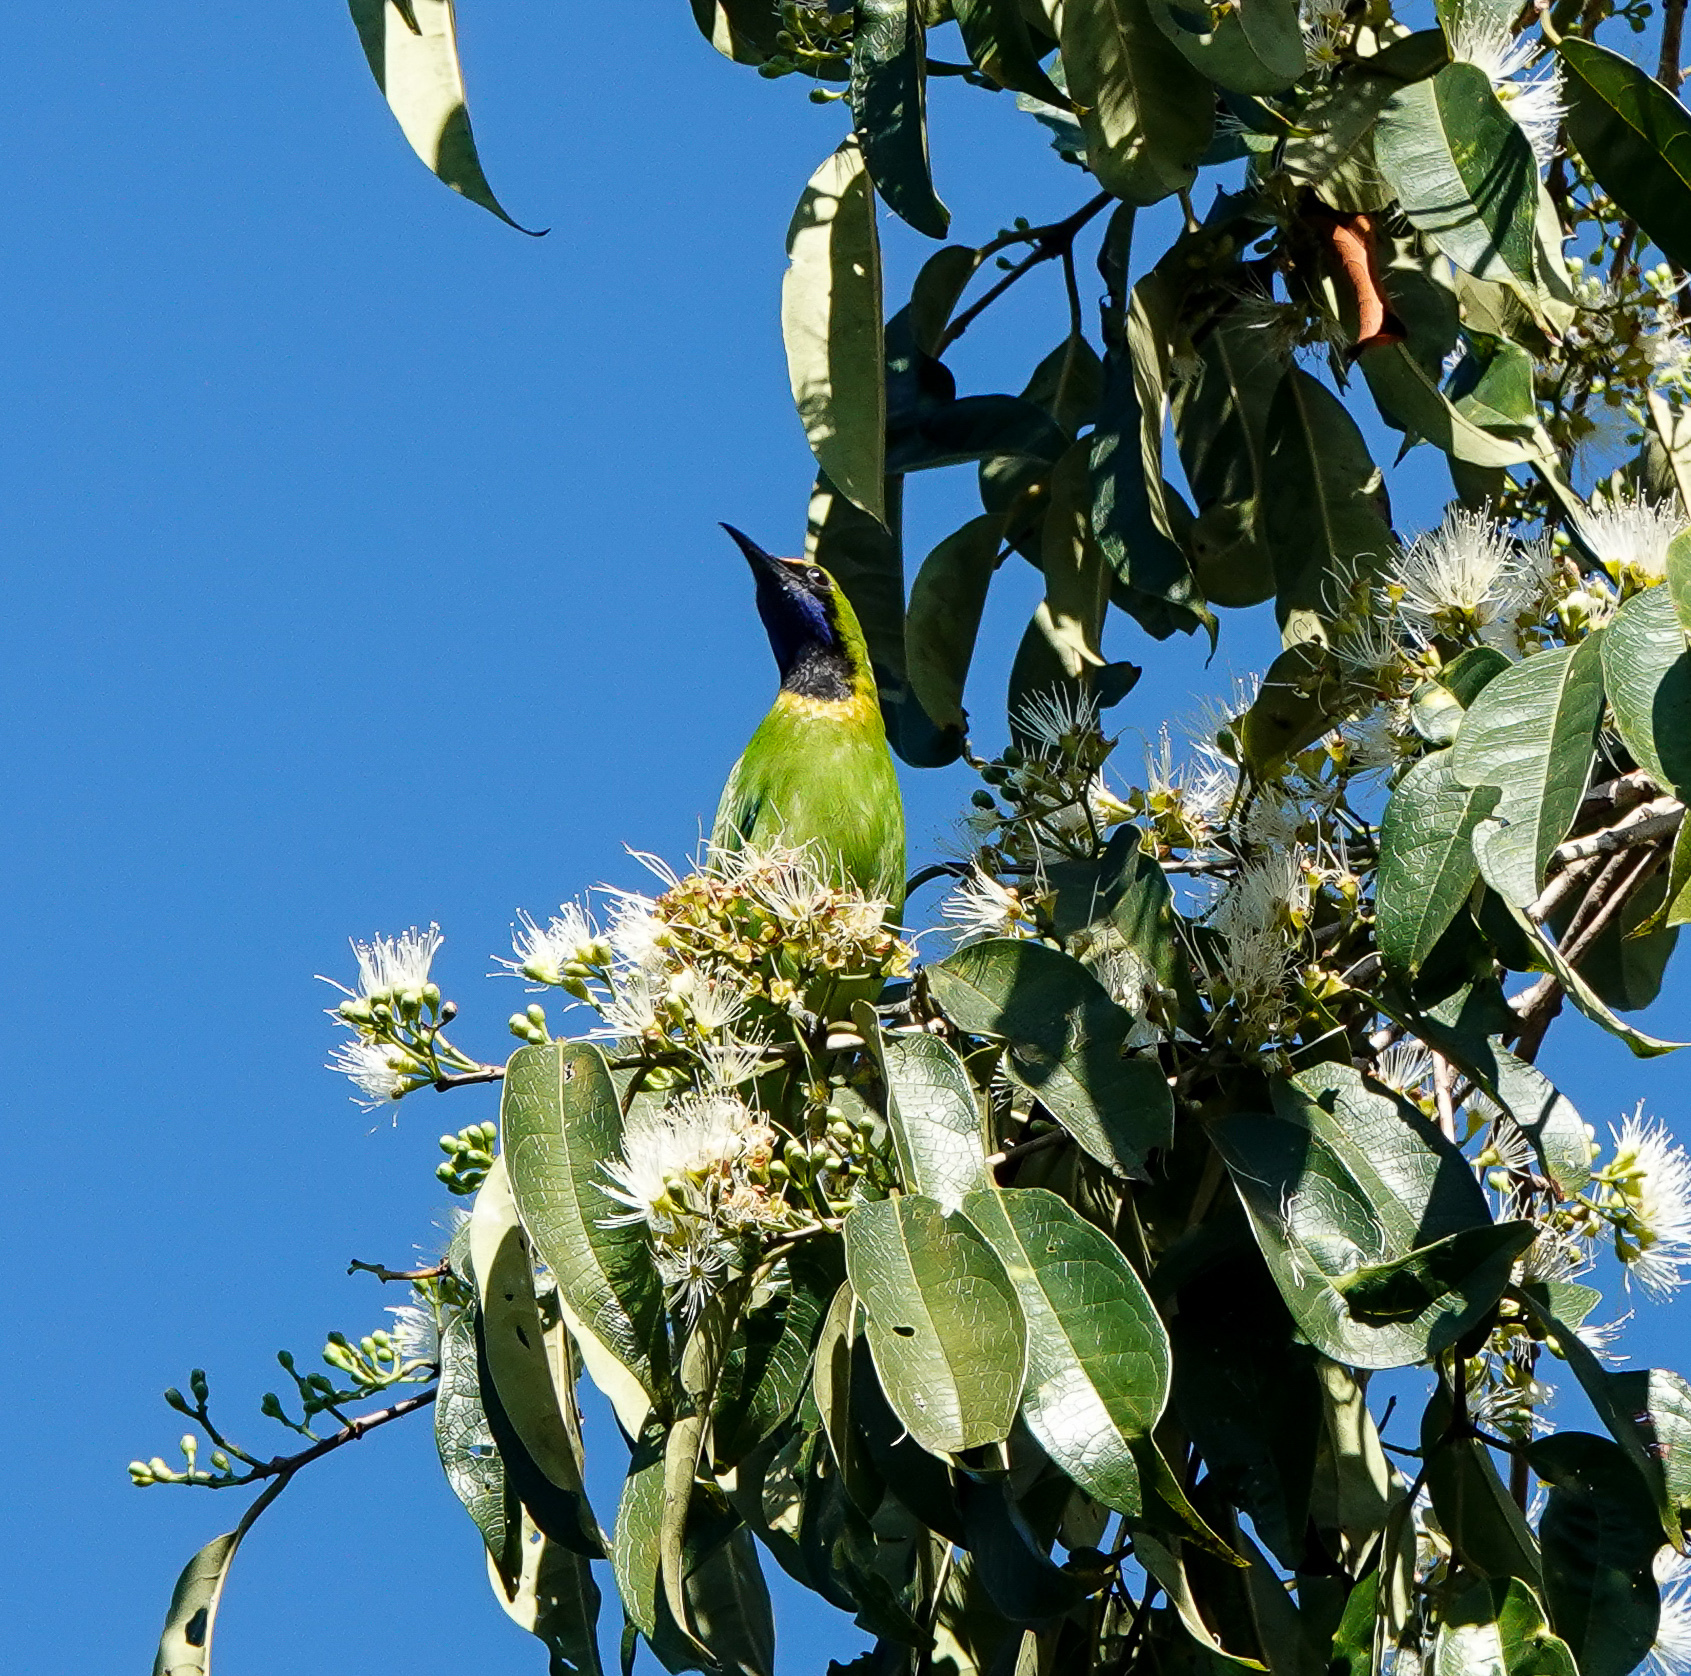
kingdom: Animalia
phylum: Chordata
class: Aves
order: Passeriformes
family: Chloropseidae
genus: Chloropsis
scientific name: Chloropsis aurifrons
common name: Golden-fronted leafbird
